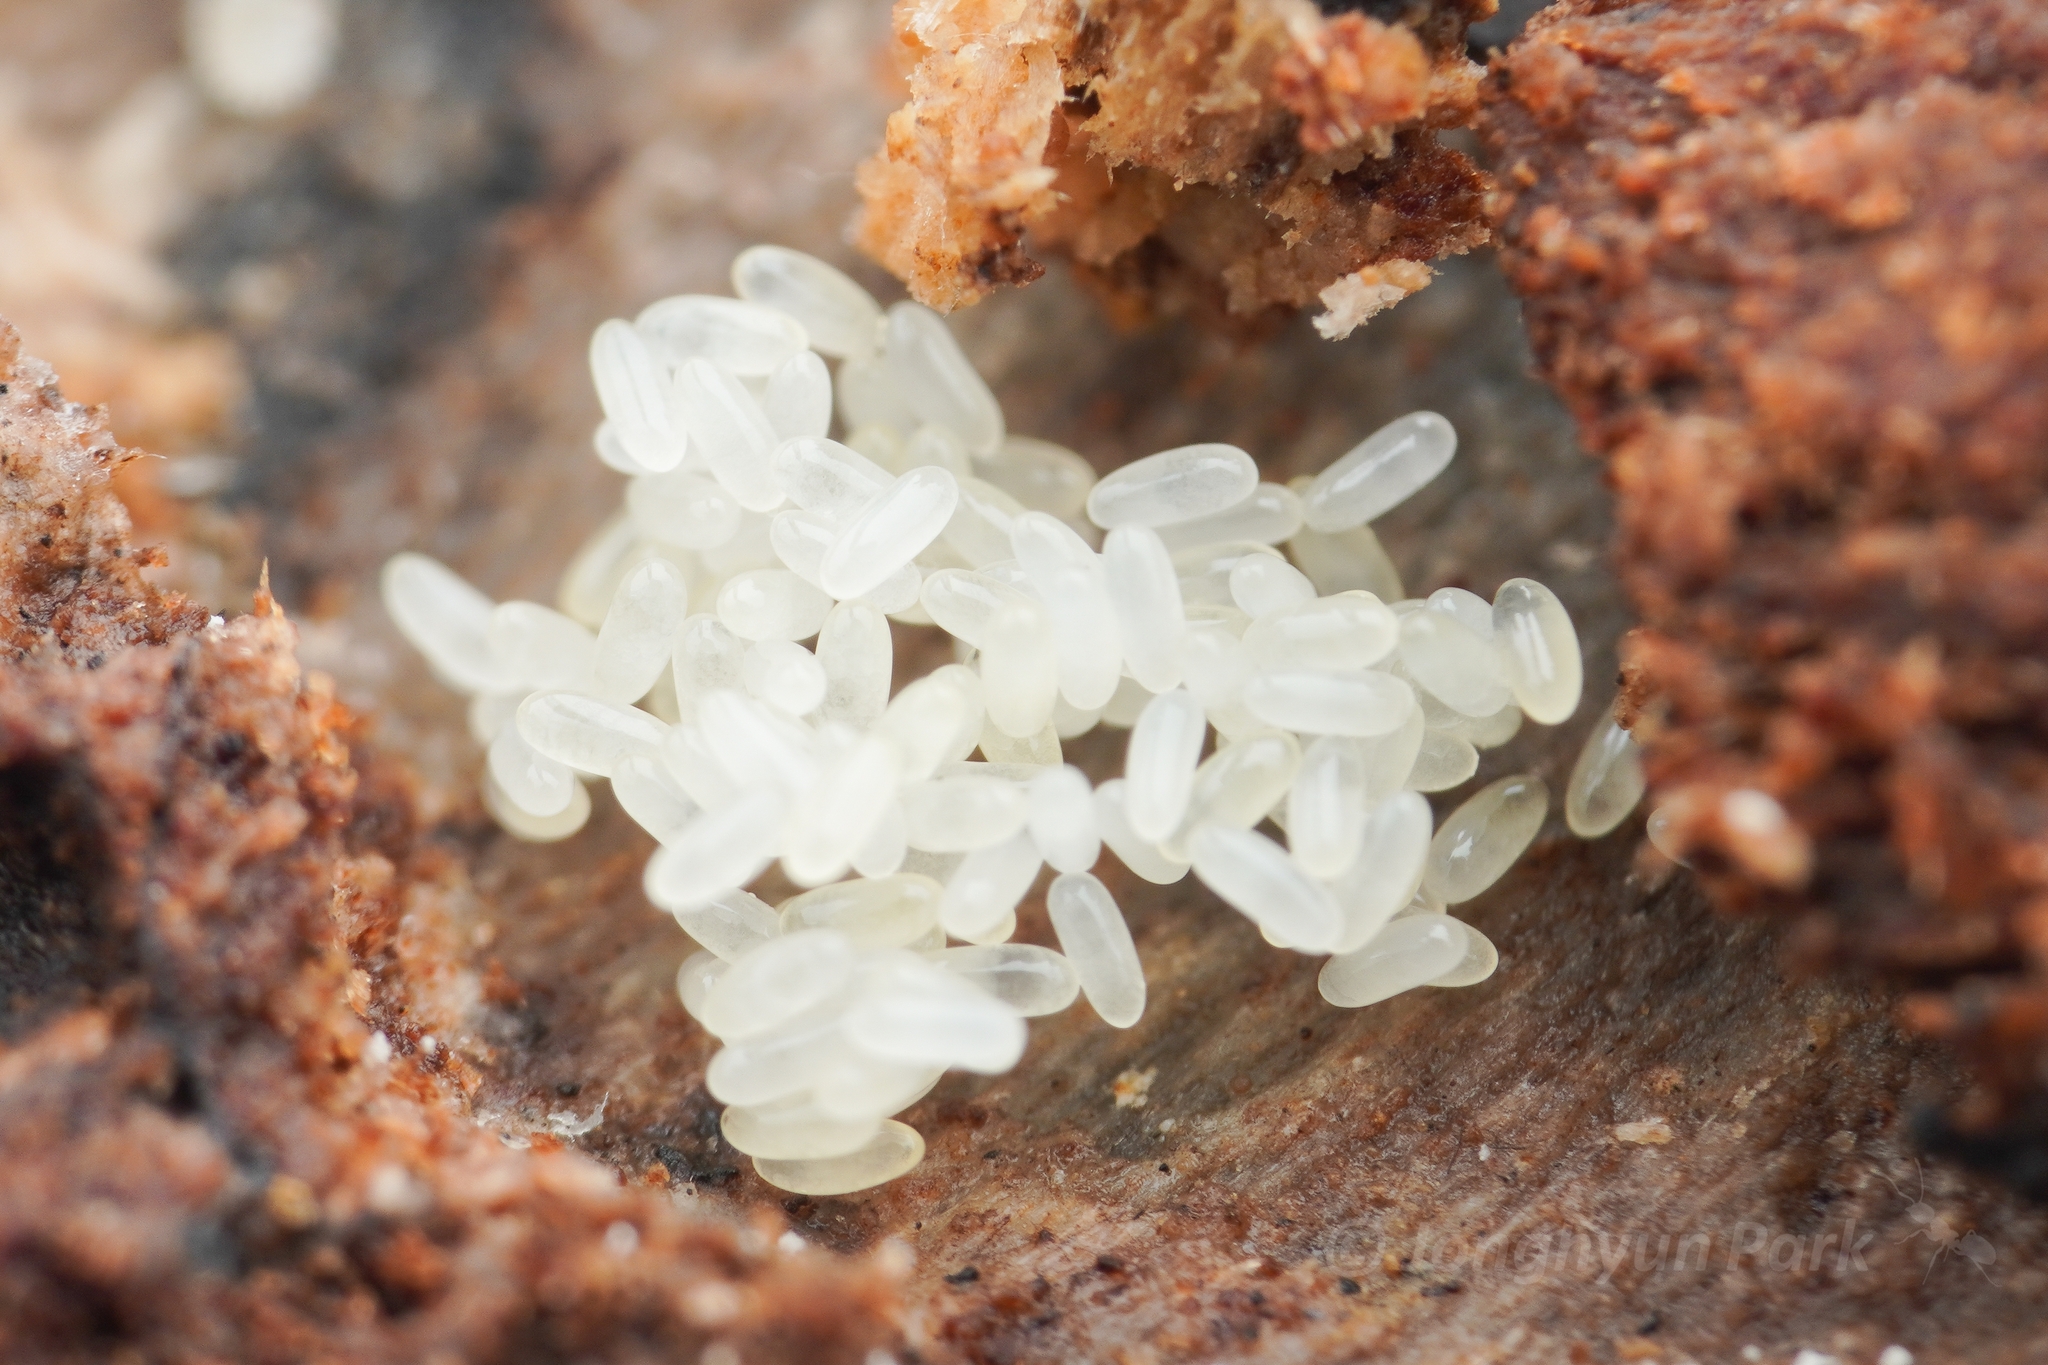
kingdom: Animalia
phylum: Arthropoda
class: Insecta
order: Hymenoptera
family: Formicidae
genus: Cryptopone
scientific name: Cryptopone sauteri
